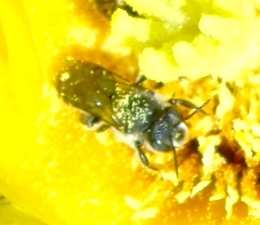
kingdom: Animalia
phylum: Arthropoda
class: Insecta
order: Hymenoptera
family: Megachilidae
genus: Lithurgopsis
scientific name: Lithurgopsis
